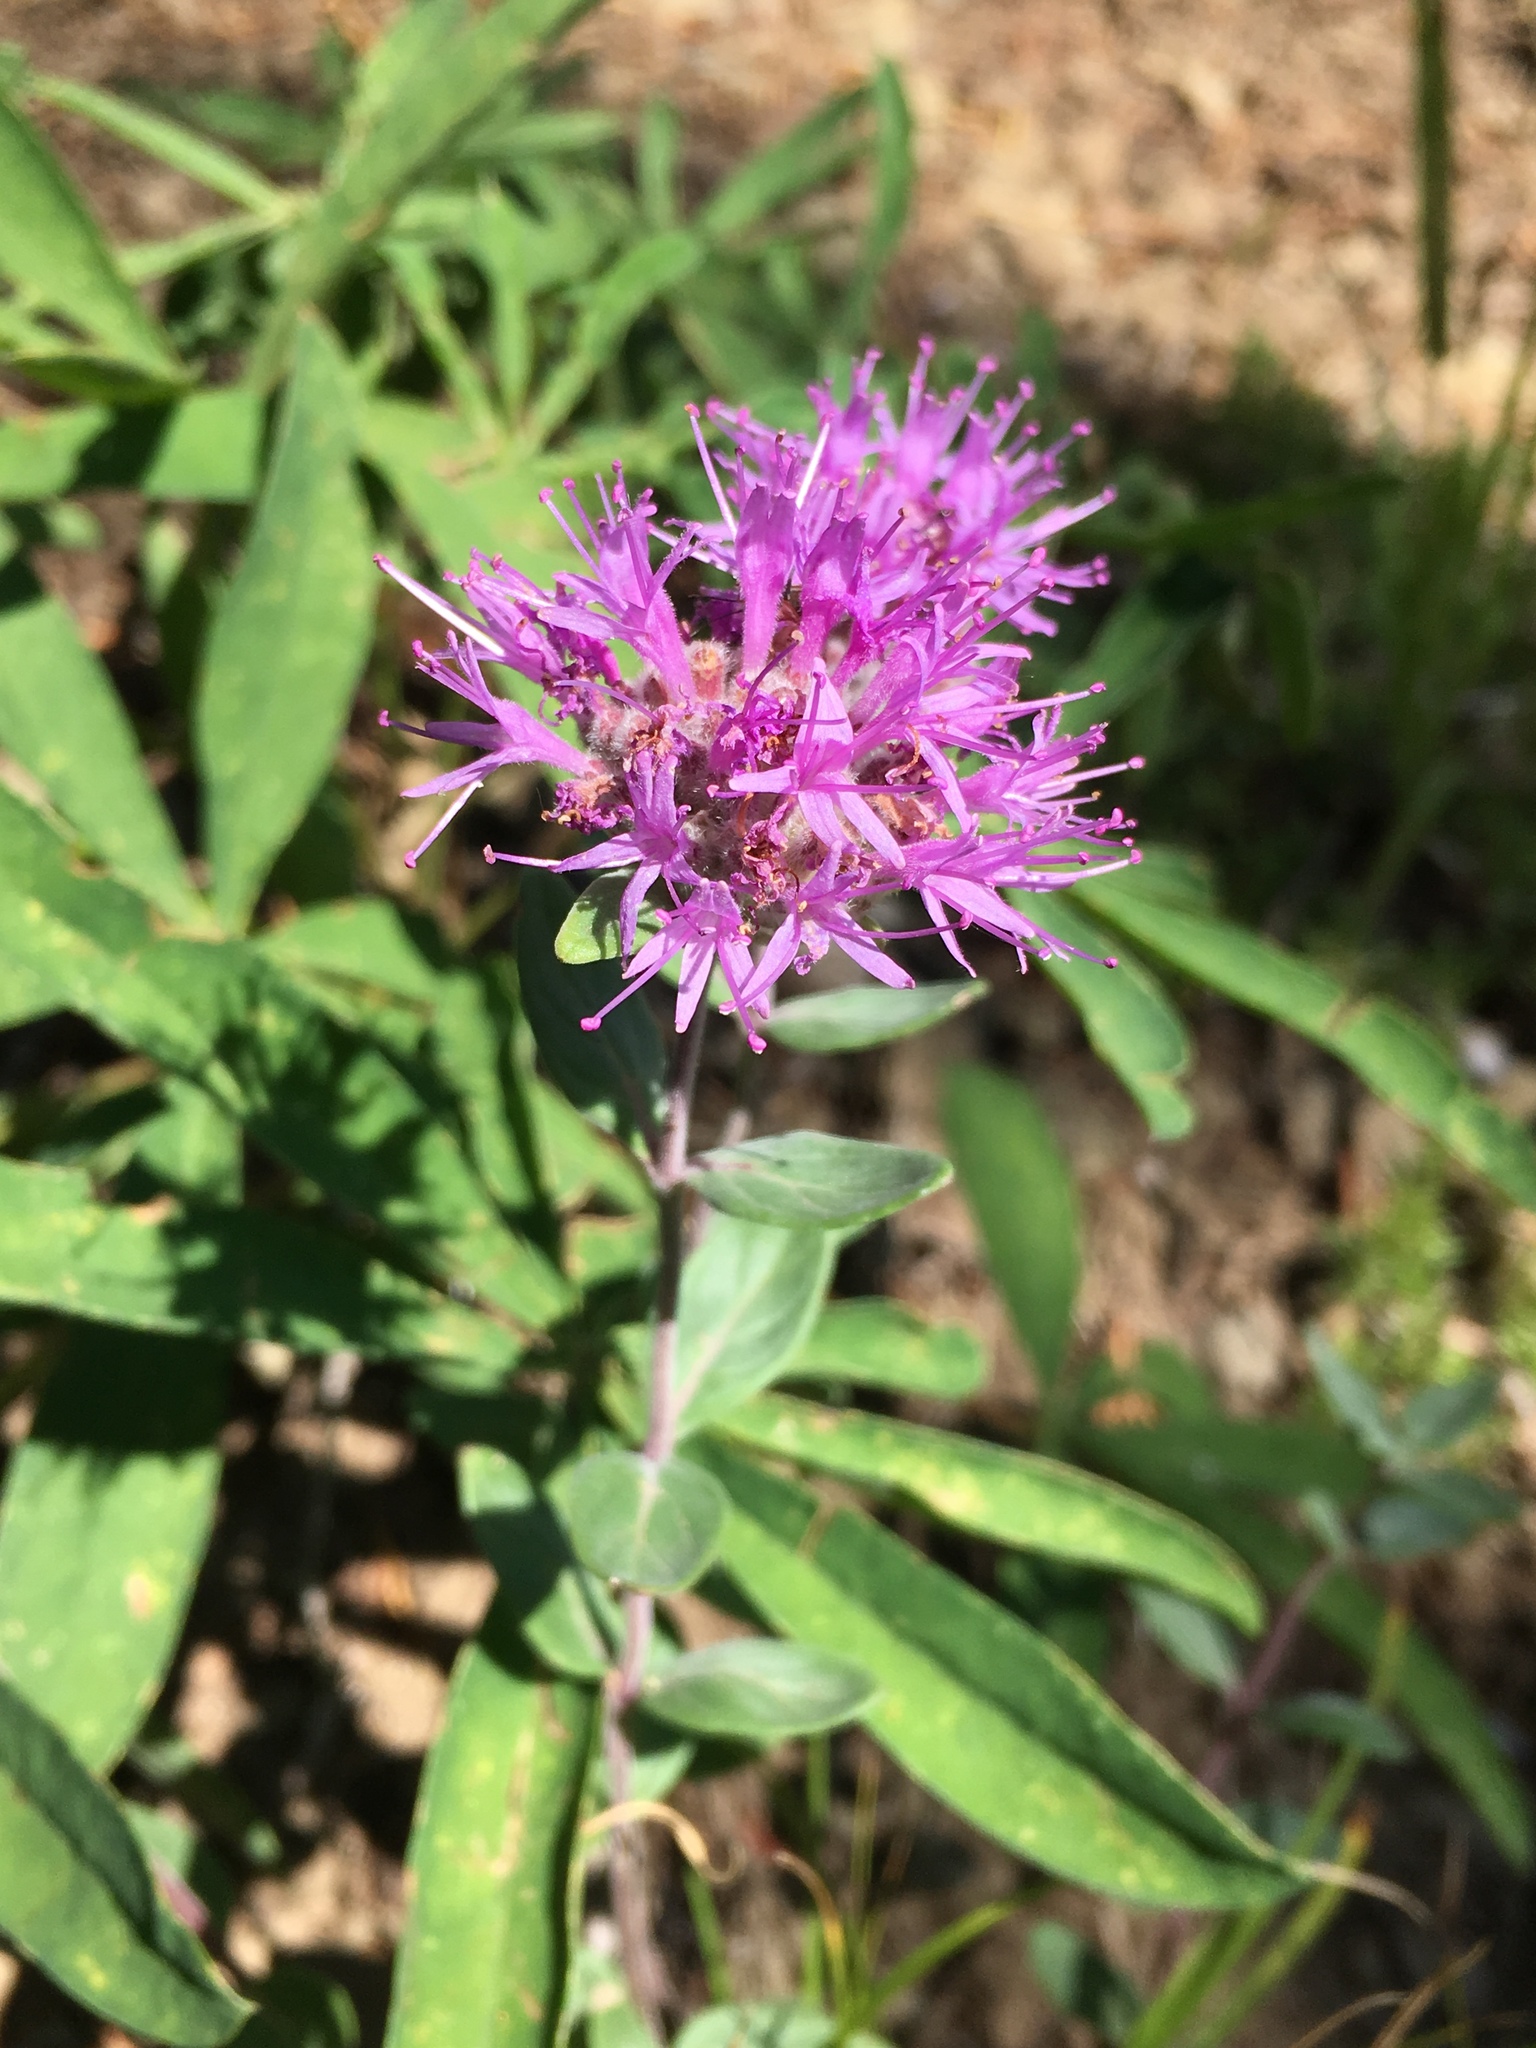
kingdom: Plantae
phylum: Tracheophyta
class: Magnoliopsida
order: Lamiales
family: Lamiaceae
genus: Monardella
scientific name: Monardella odoratissima
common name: Pacific monardella
